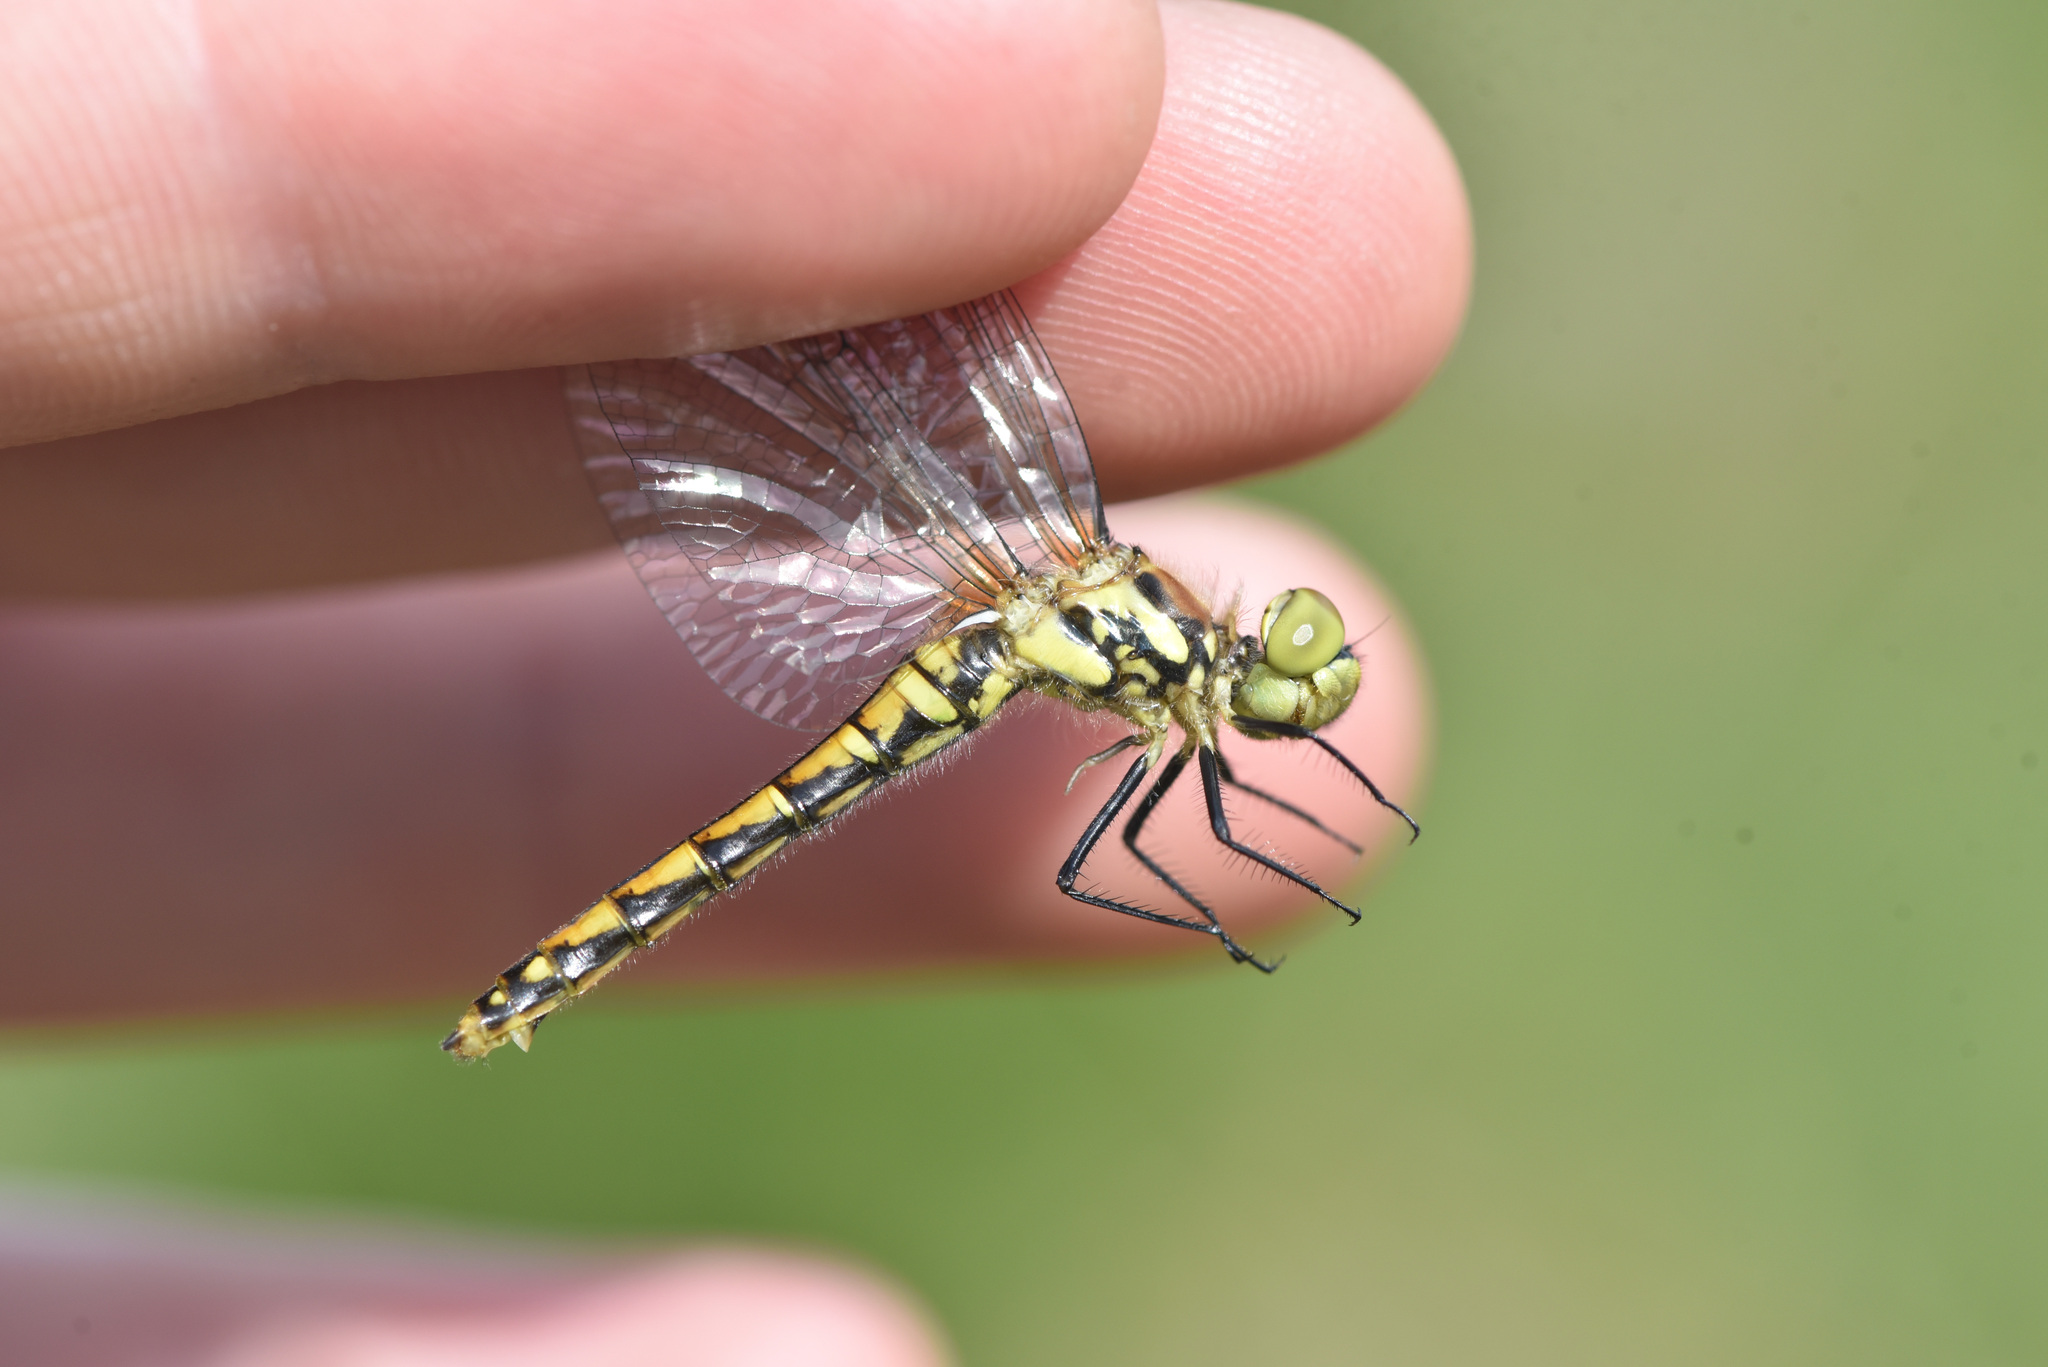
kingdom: Animalia
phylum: Arthropoda
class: Insecta
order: Odonata
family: Libellulidae
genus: Sympetrum
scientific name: Sympetrum danae
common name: Black darter
